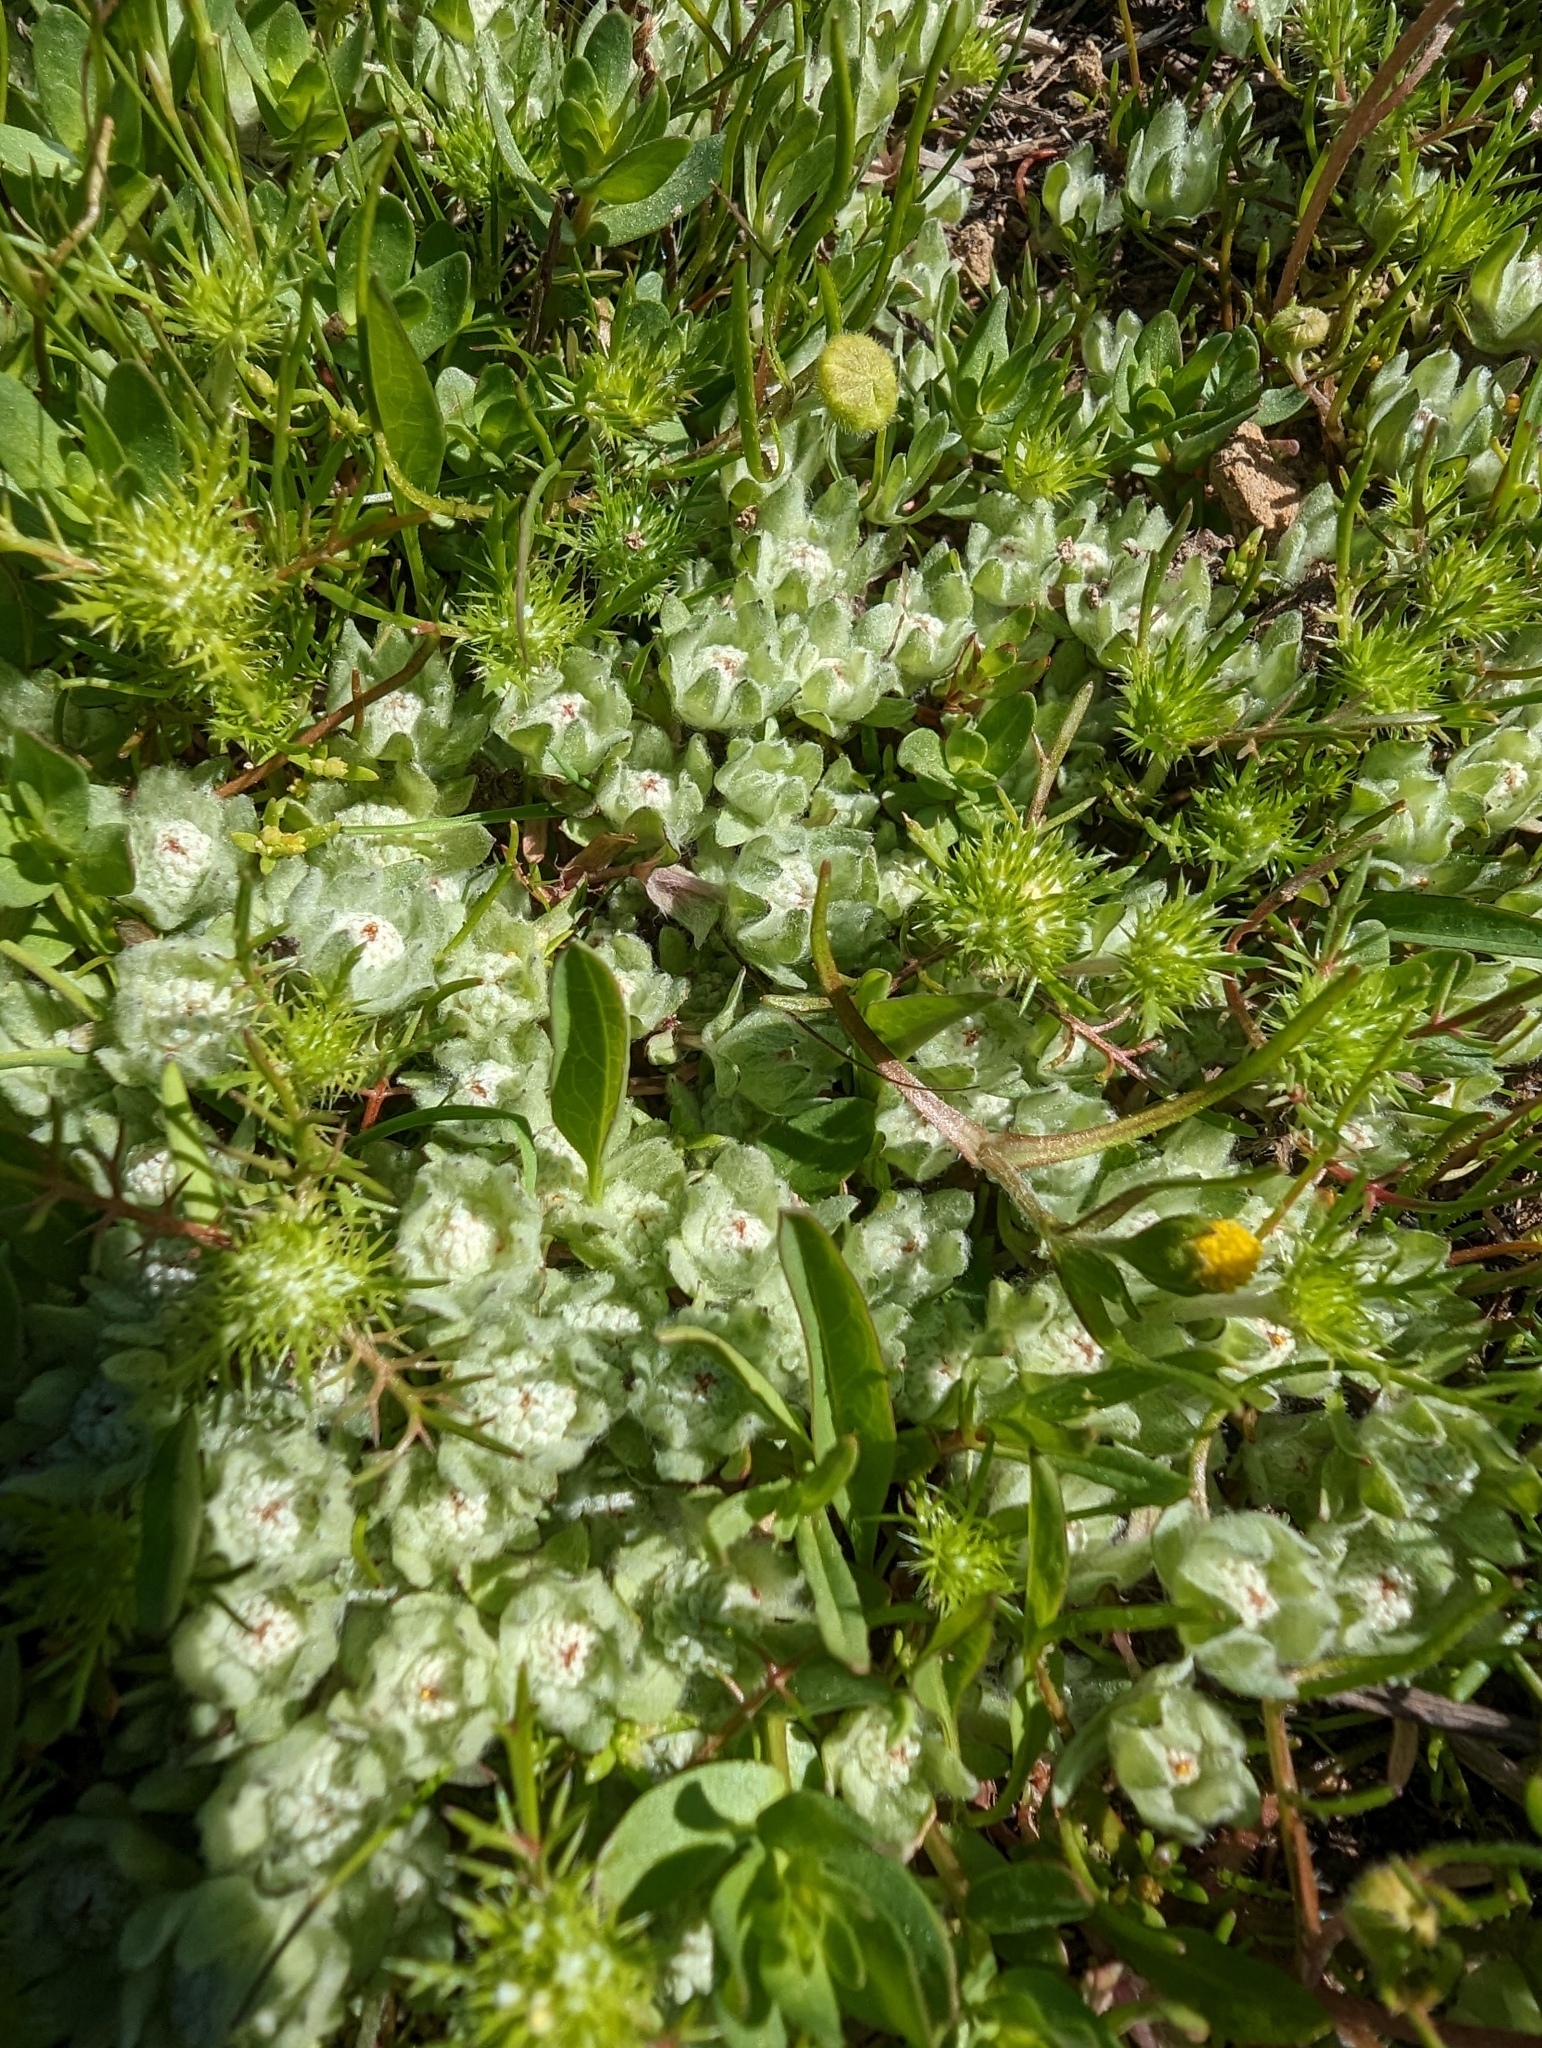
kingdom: Plantae
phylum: Tracheophyta
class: Magnoliopsida
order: Asterales
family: Asteraceae
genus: Psilocarphus
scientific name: Psilocarphus brevissimus
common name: Dwarf woollyheads
